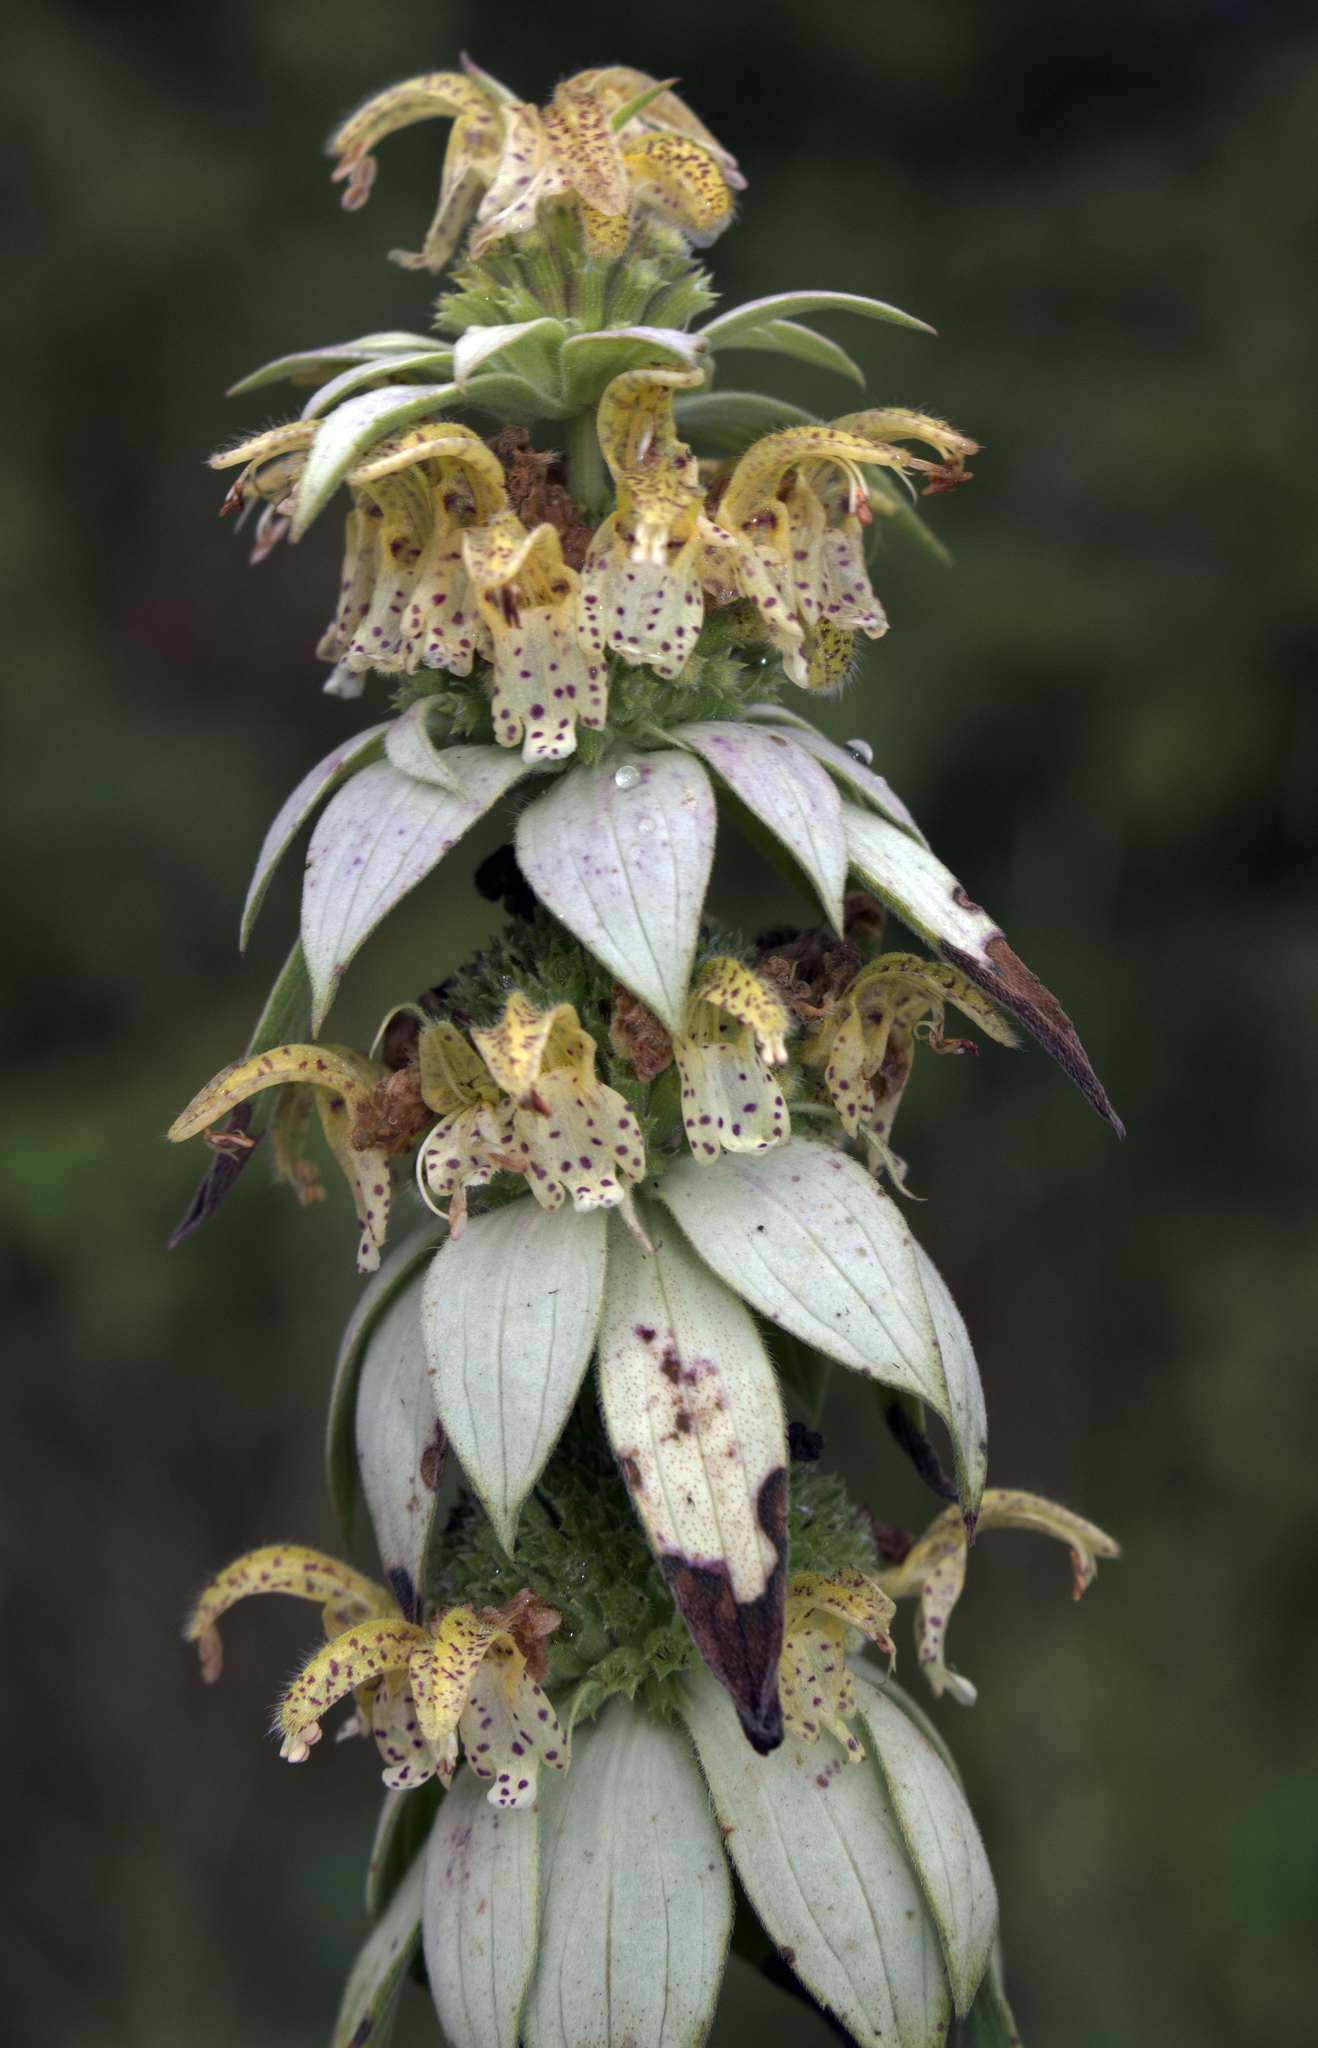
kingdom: Plantae
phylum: Tracheophyta
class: Magnoliopsida
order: Lamiales
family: Lamiaceae
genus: Monarda
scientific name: Monarda punctata
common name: Dotted monarda
